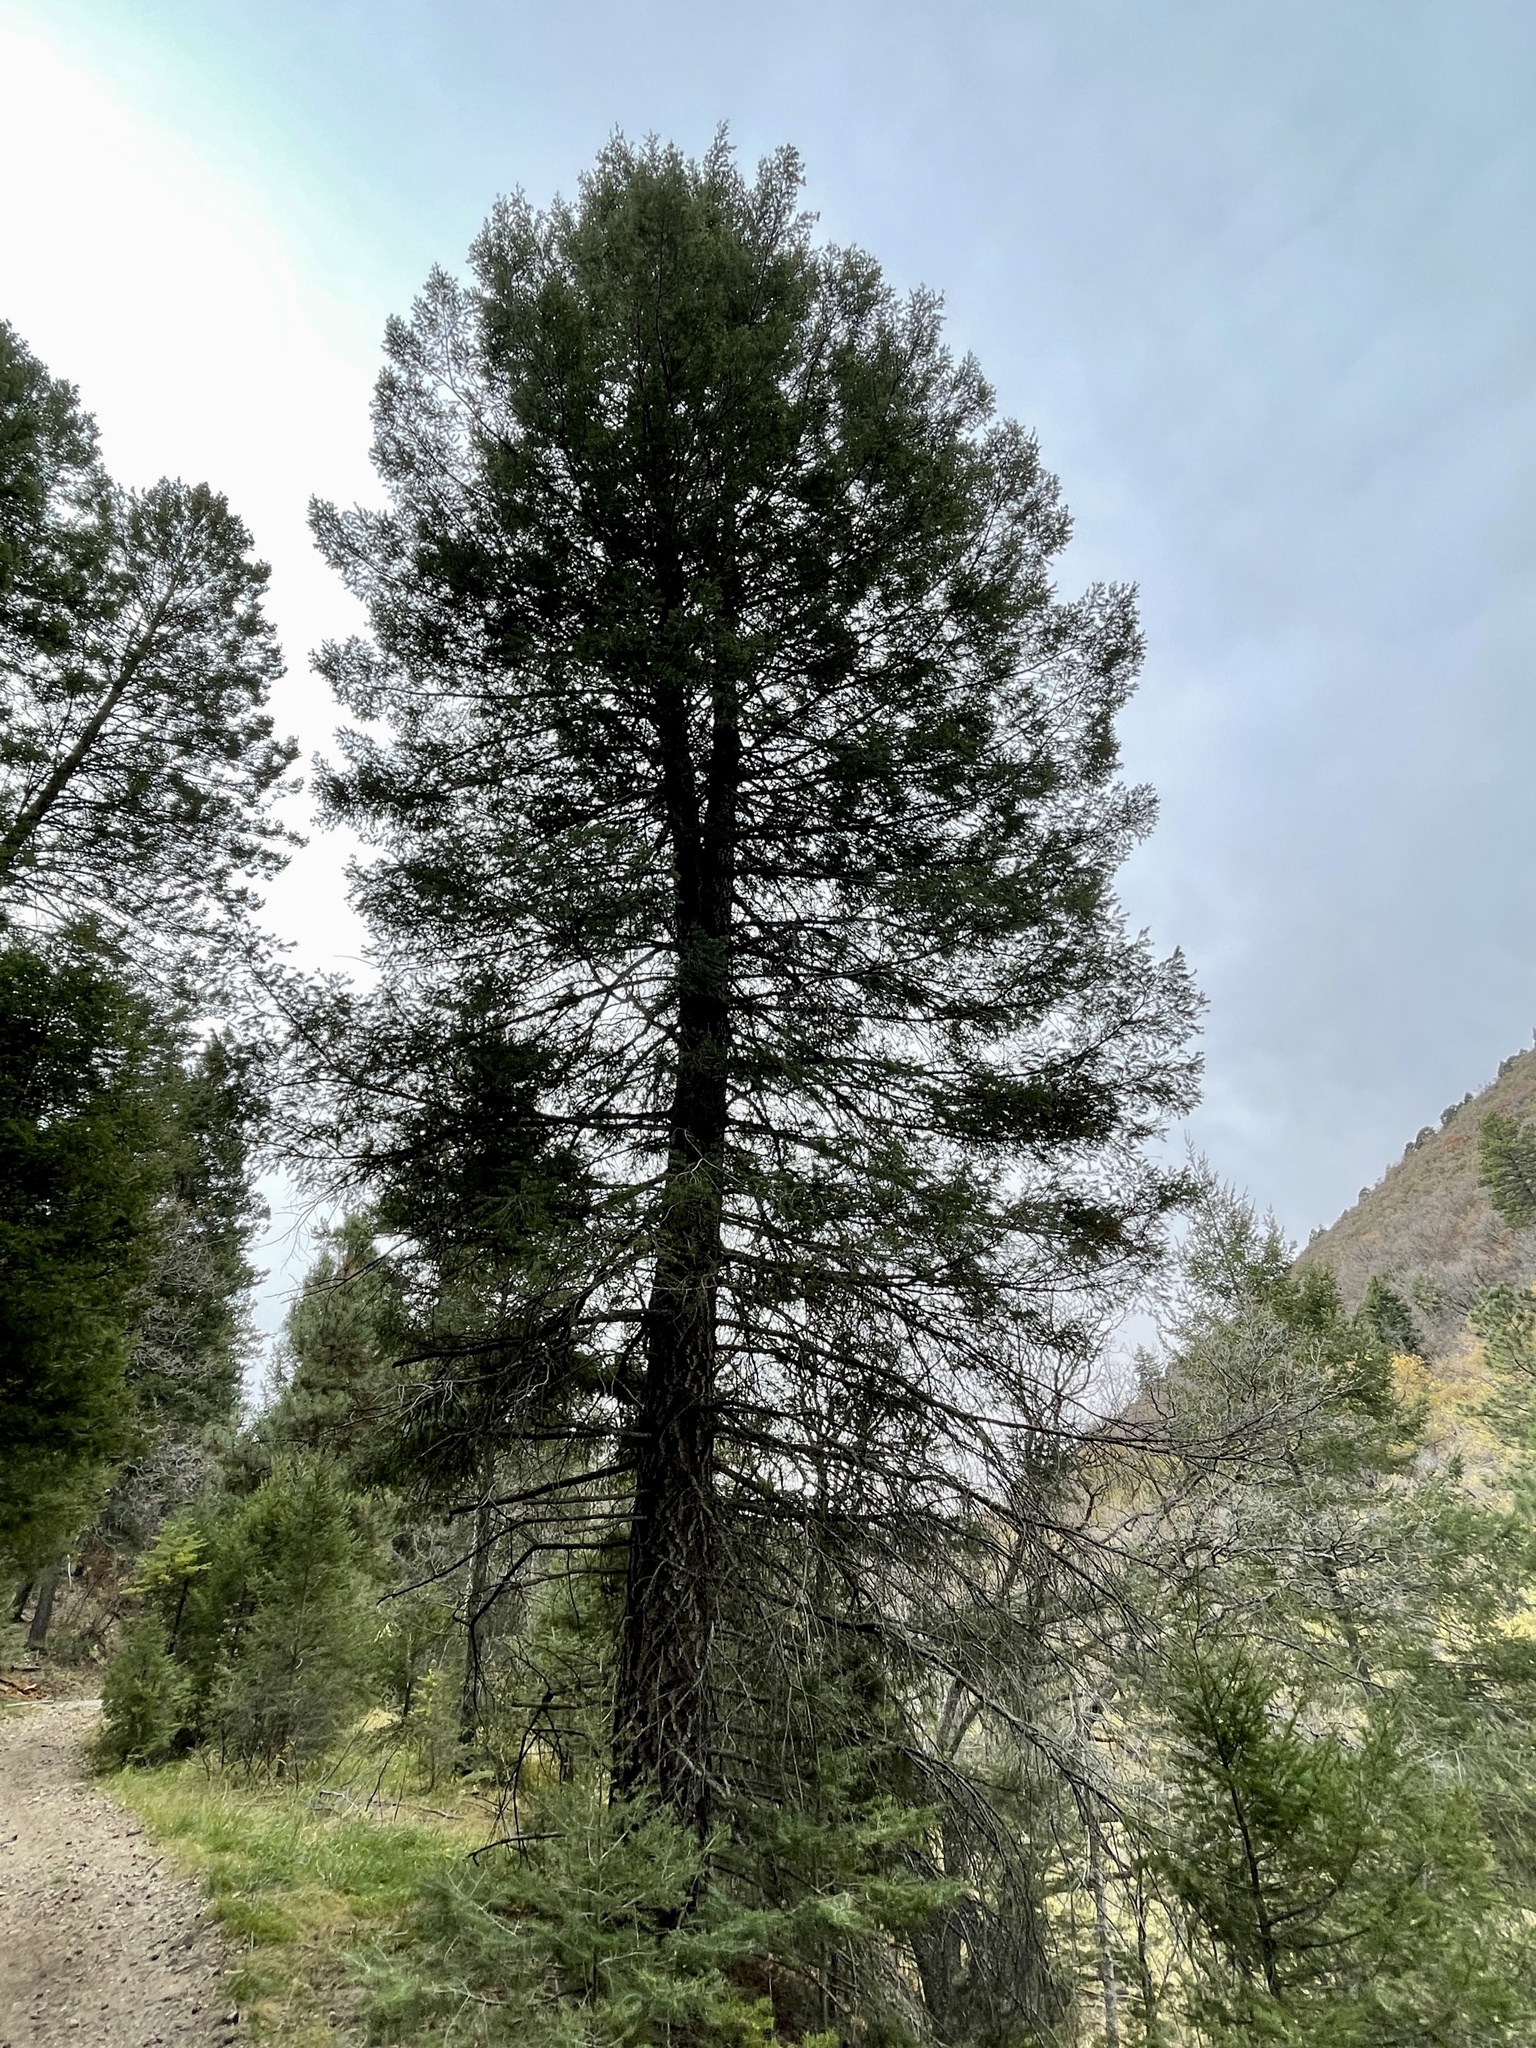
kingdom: Plantae
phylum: Tracheophyta
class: Pinopsida
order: Pinales
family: Pinaceae
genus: Pseudotsuga
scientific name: Pseudotsuga menziesii
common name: Douglas fir
